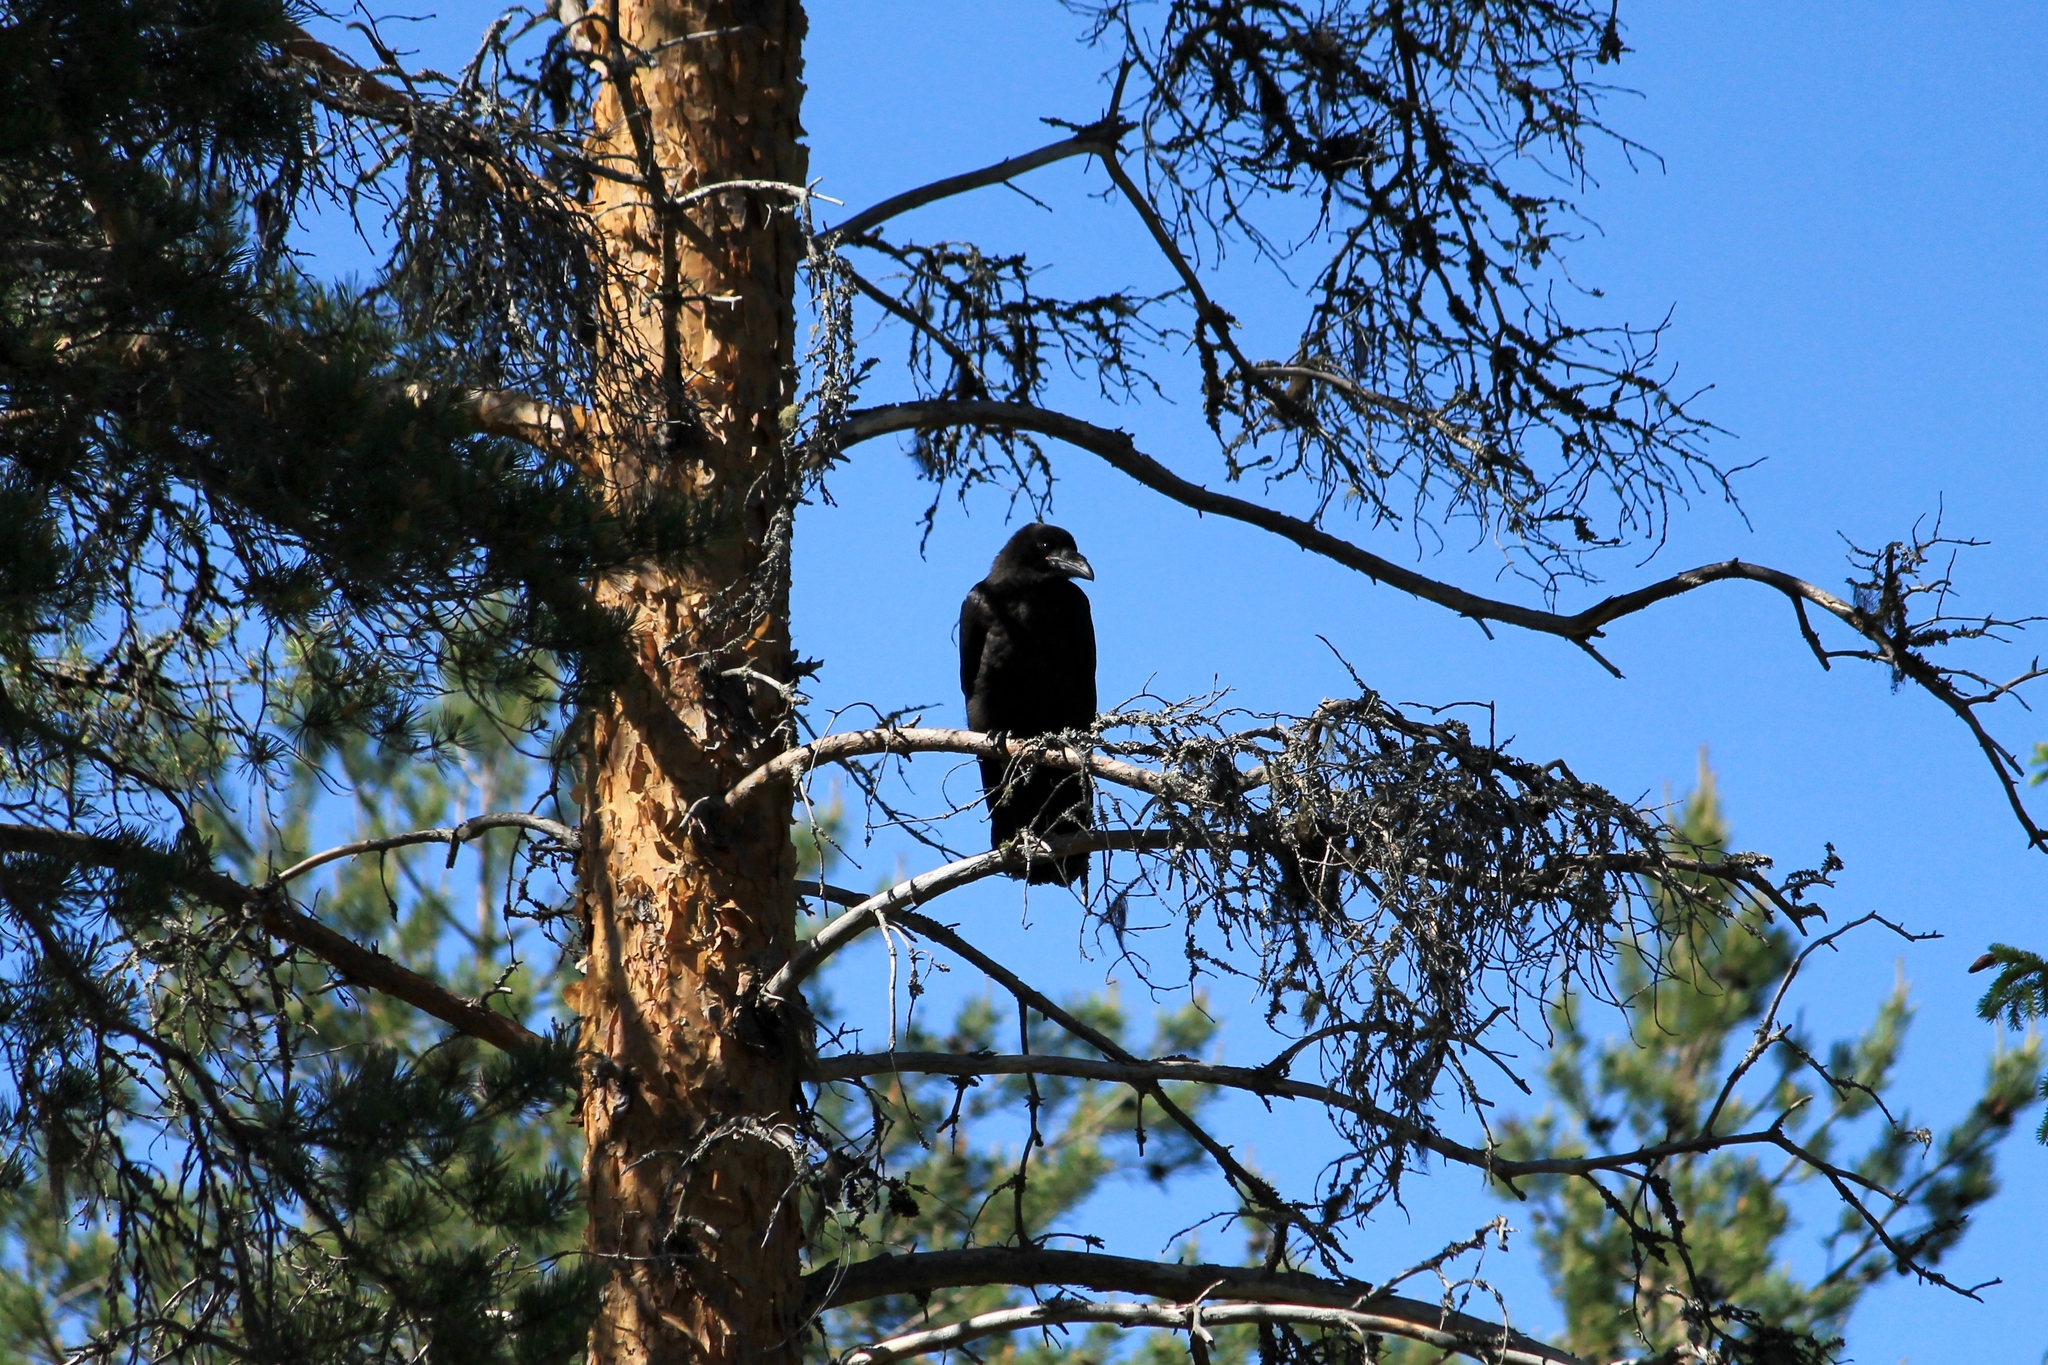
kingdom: Animalia
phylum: Chordata
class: Aves
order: Passeriformes
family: Corvidae
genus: Corvus
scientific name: Corvus corax
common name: Common raven
